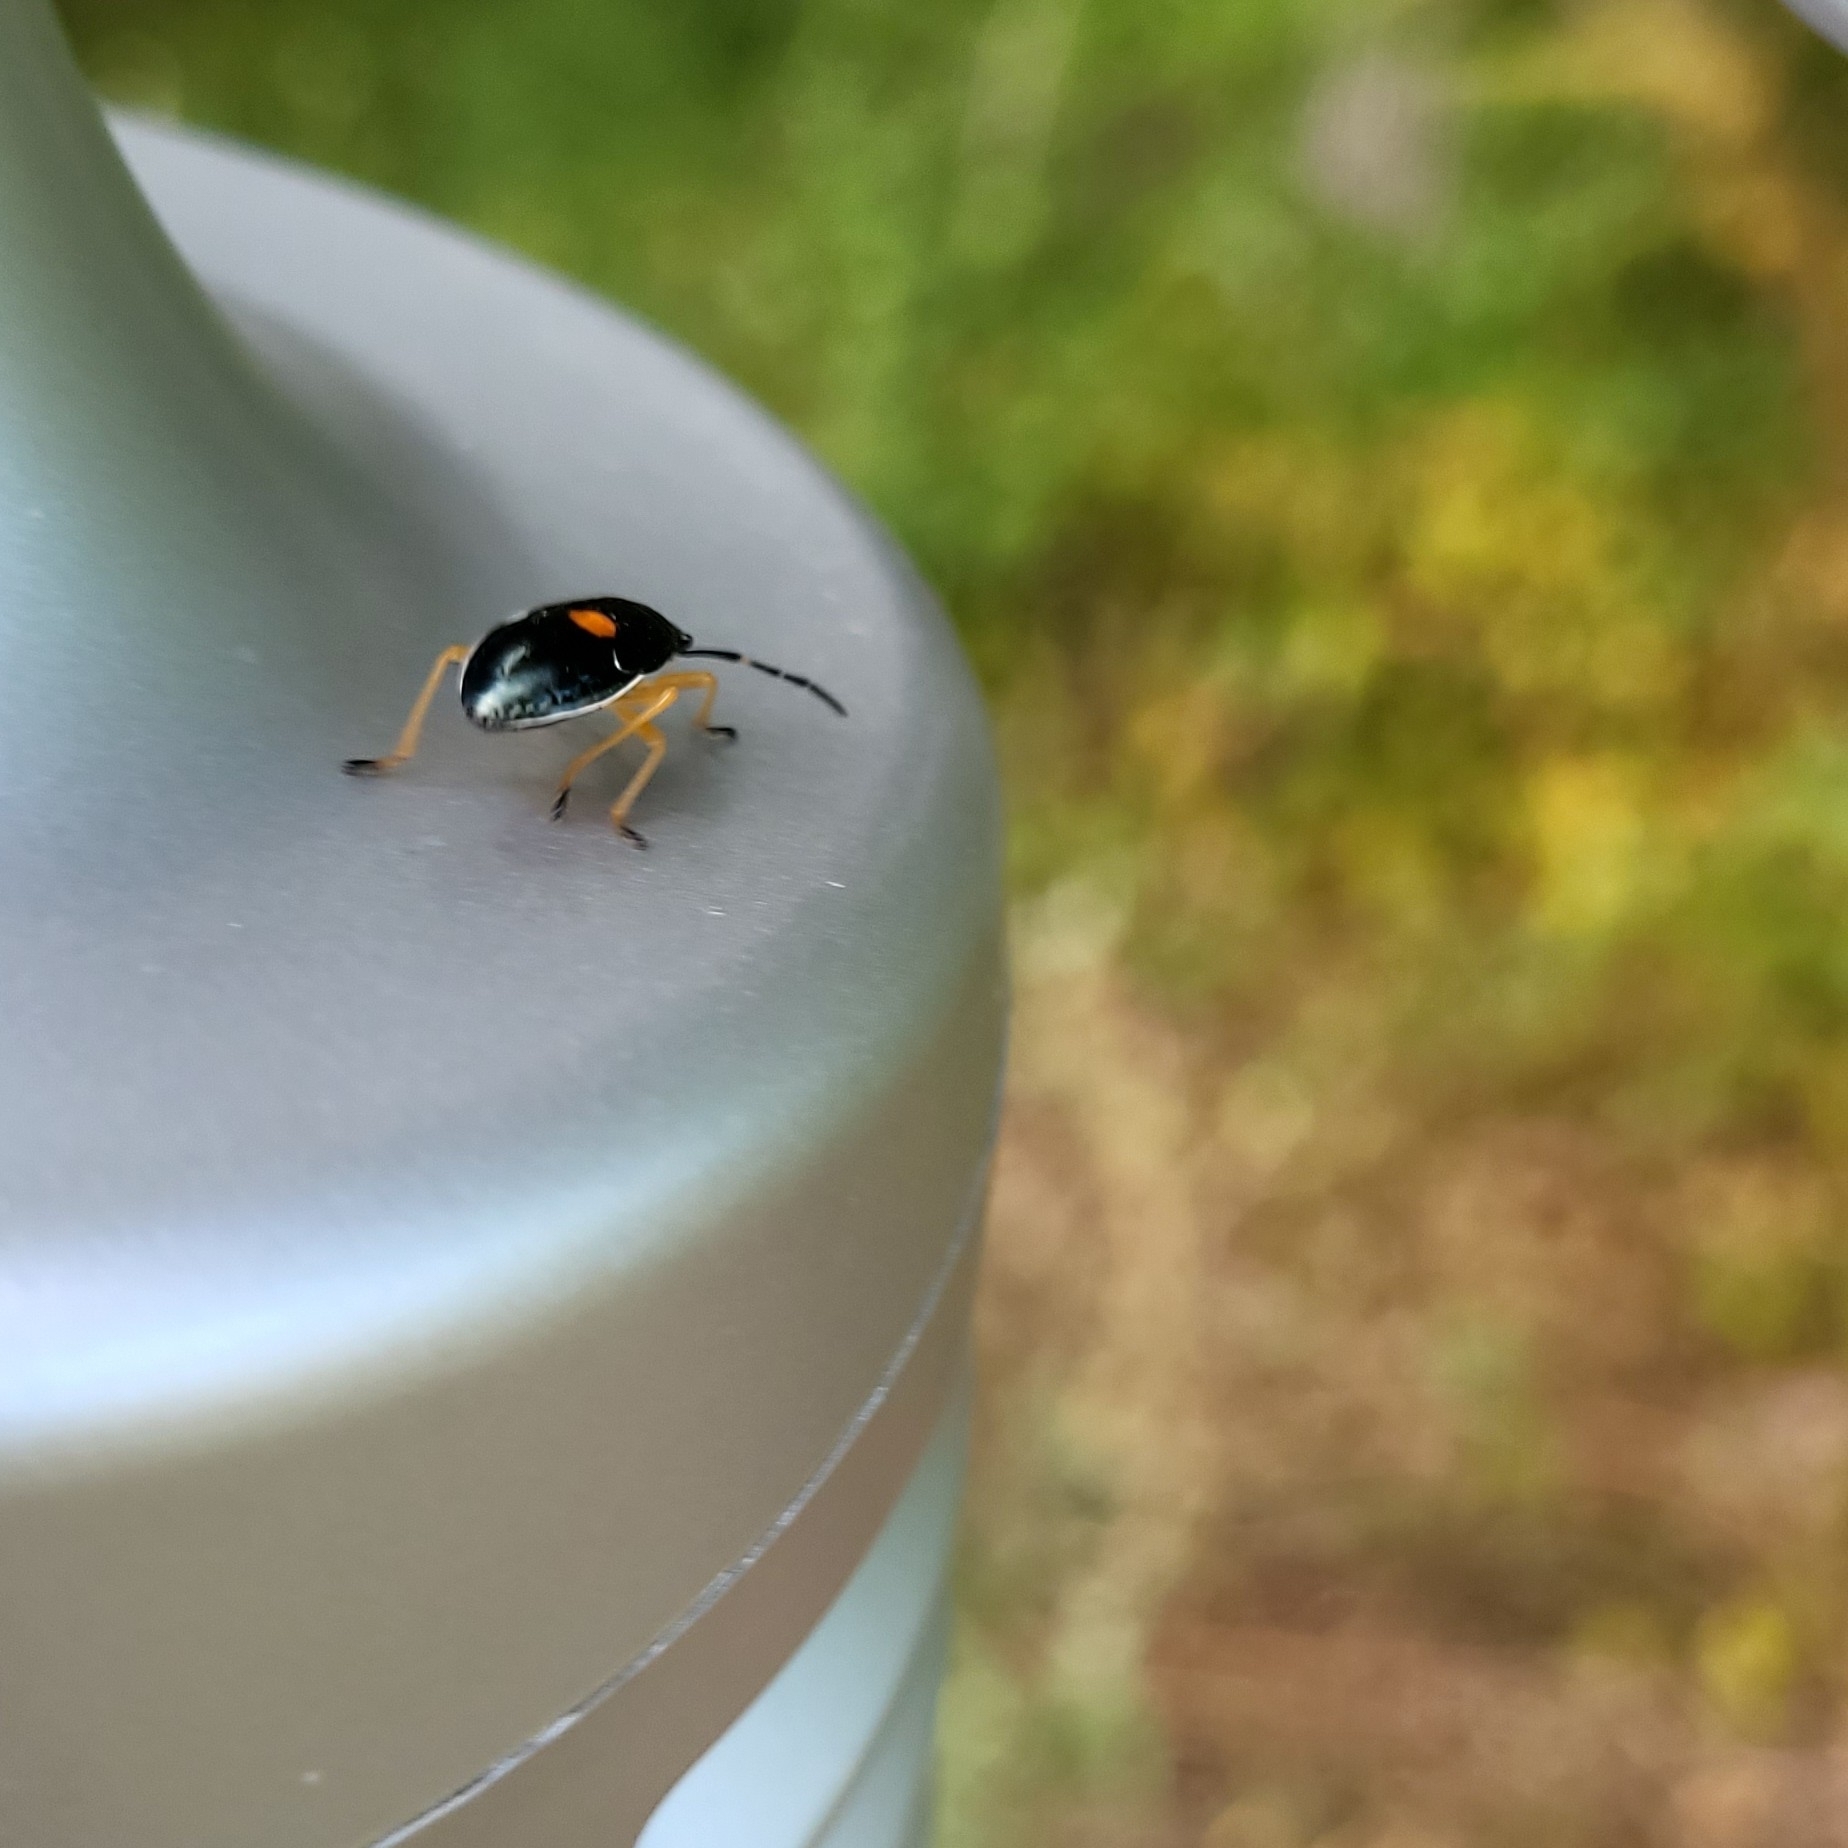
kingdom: Animalia
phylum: Arthropoda
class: Insecta
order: Hemiptera
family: Largidae
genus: Largus
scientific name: Largus succinctus
